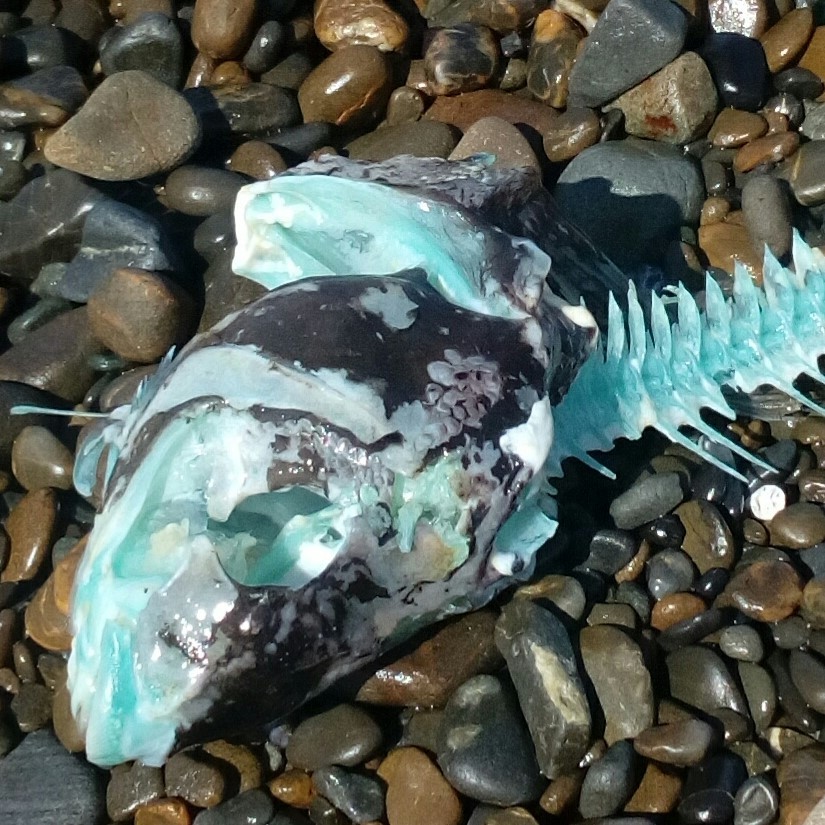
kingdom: Animalia
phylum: Chordata
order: Perciformes
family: Odacidae
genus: Odax
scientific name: Odax pullus
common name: Butterfish
